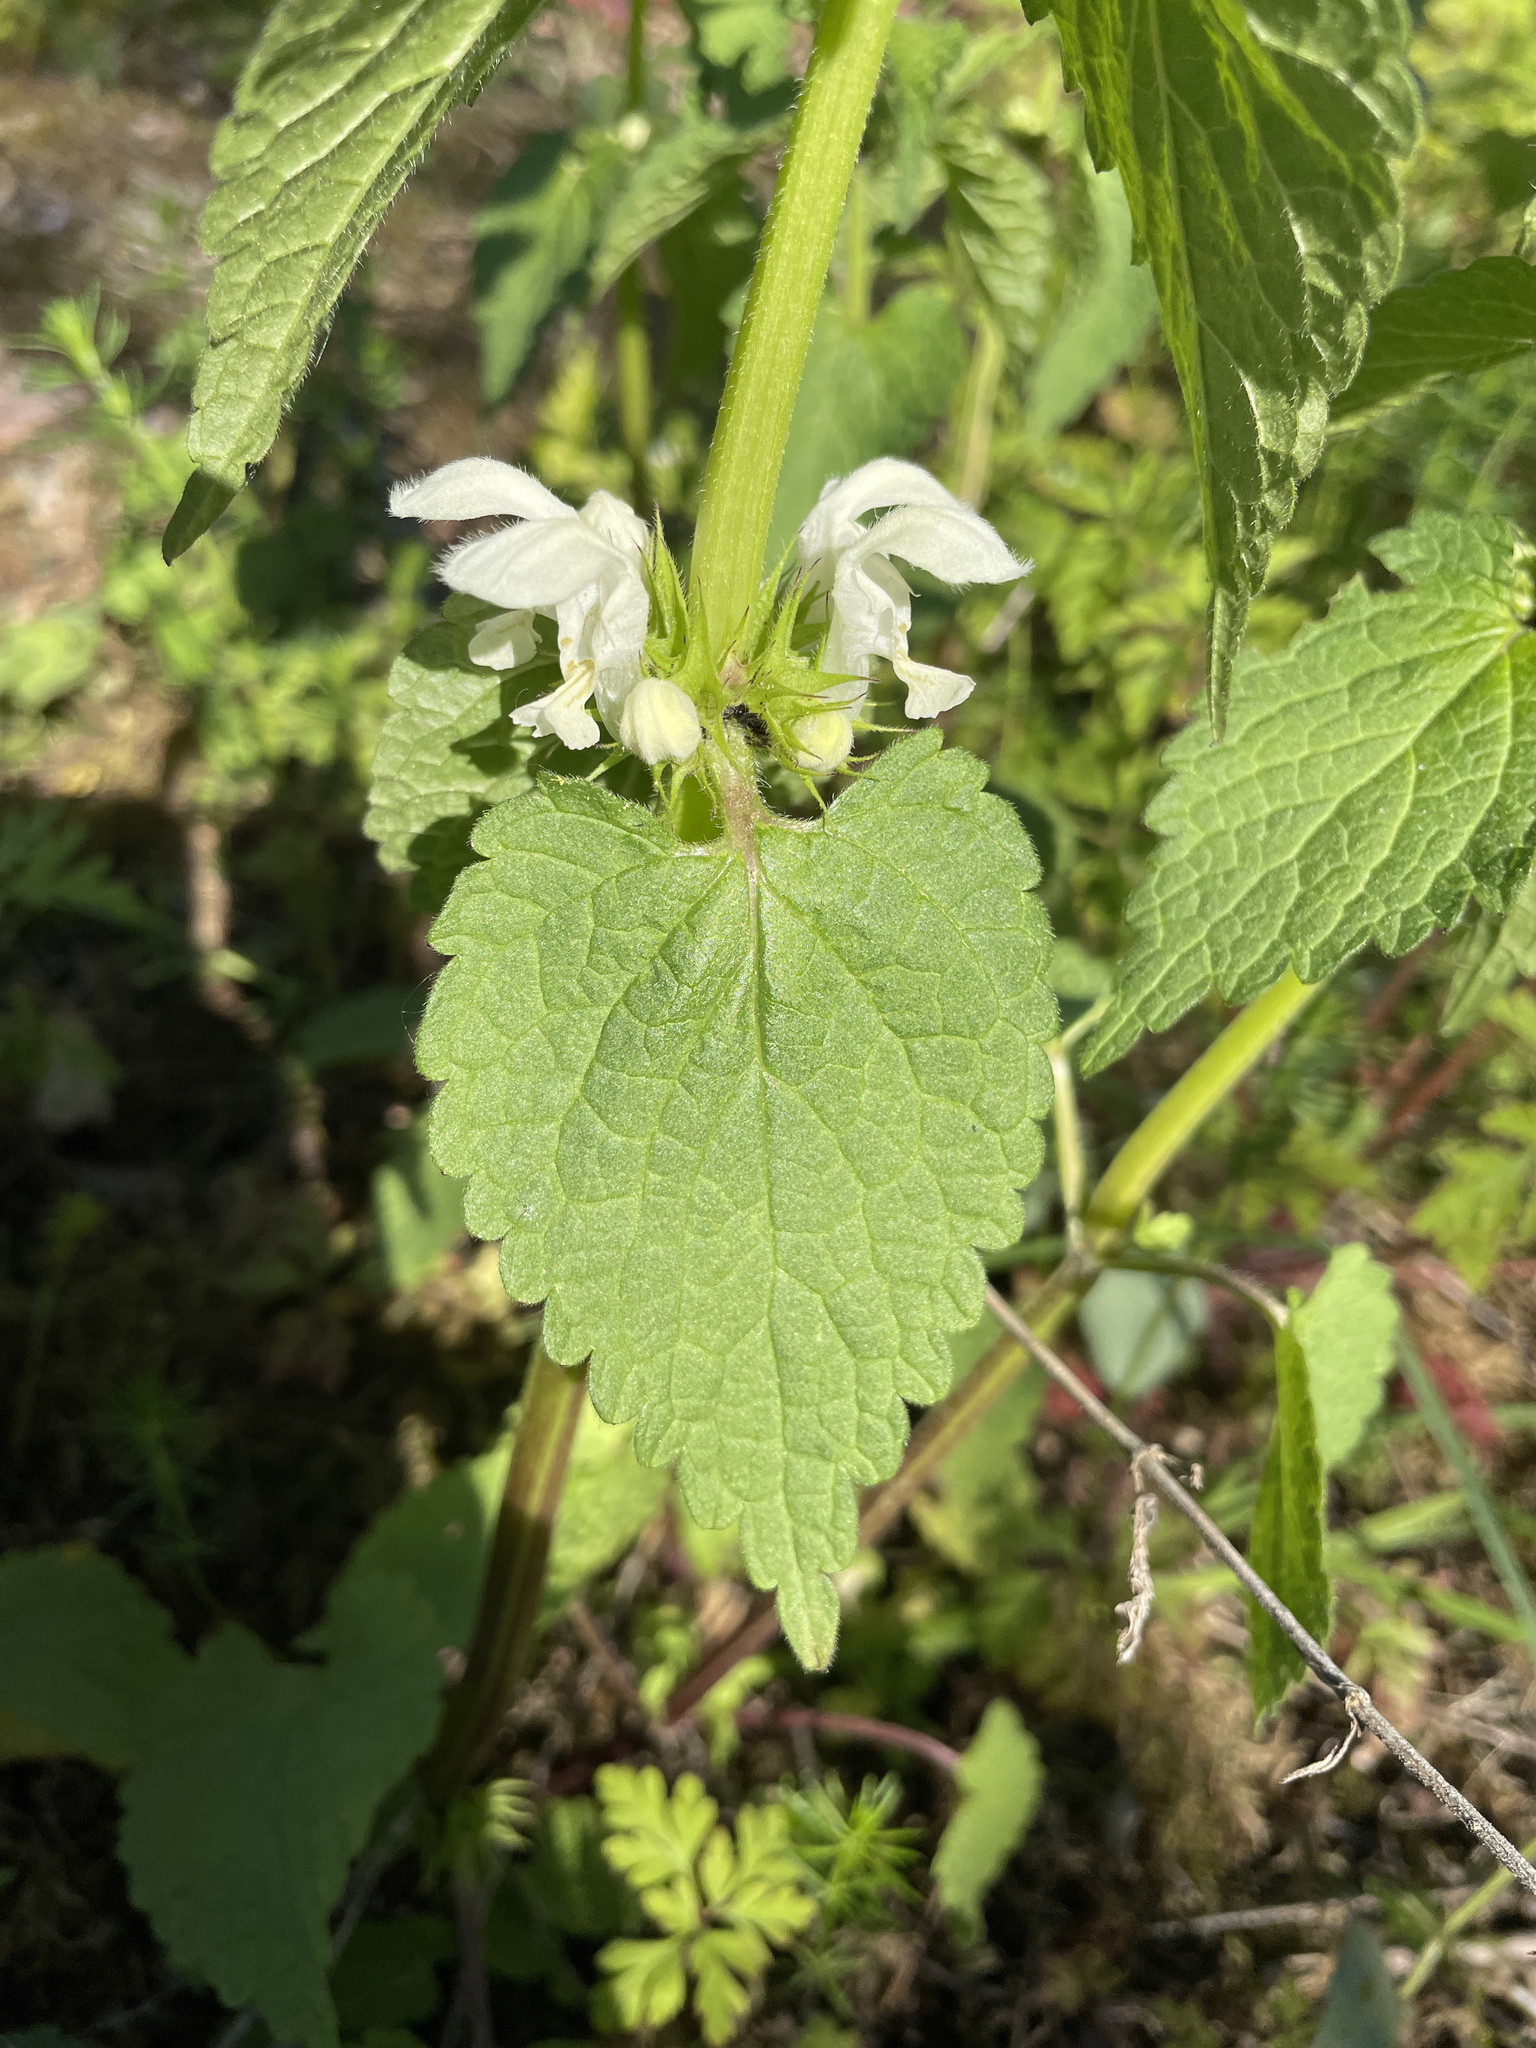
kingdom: Plantae
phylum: Tracheophyta
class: Magnoliopsida
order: Lamiales
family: Lamiaceae
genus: Lamium
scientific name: Lamium album
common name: White dead-nettle
